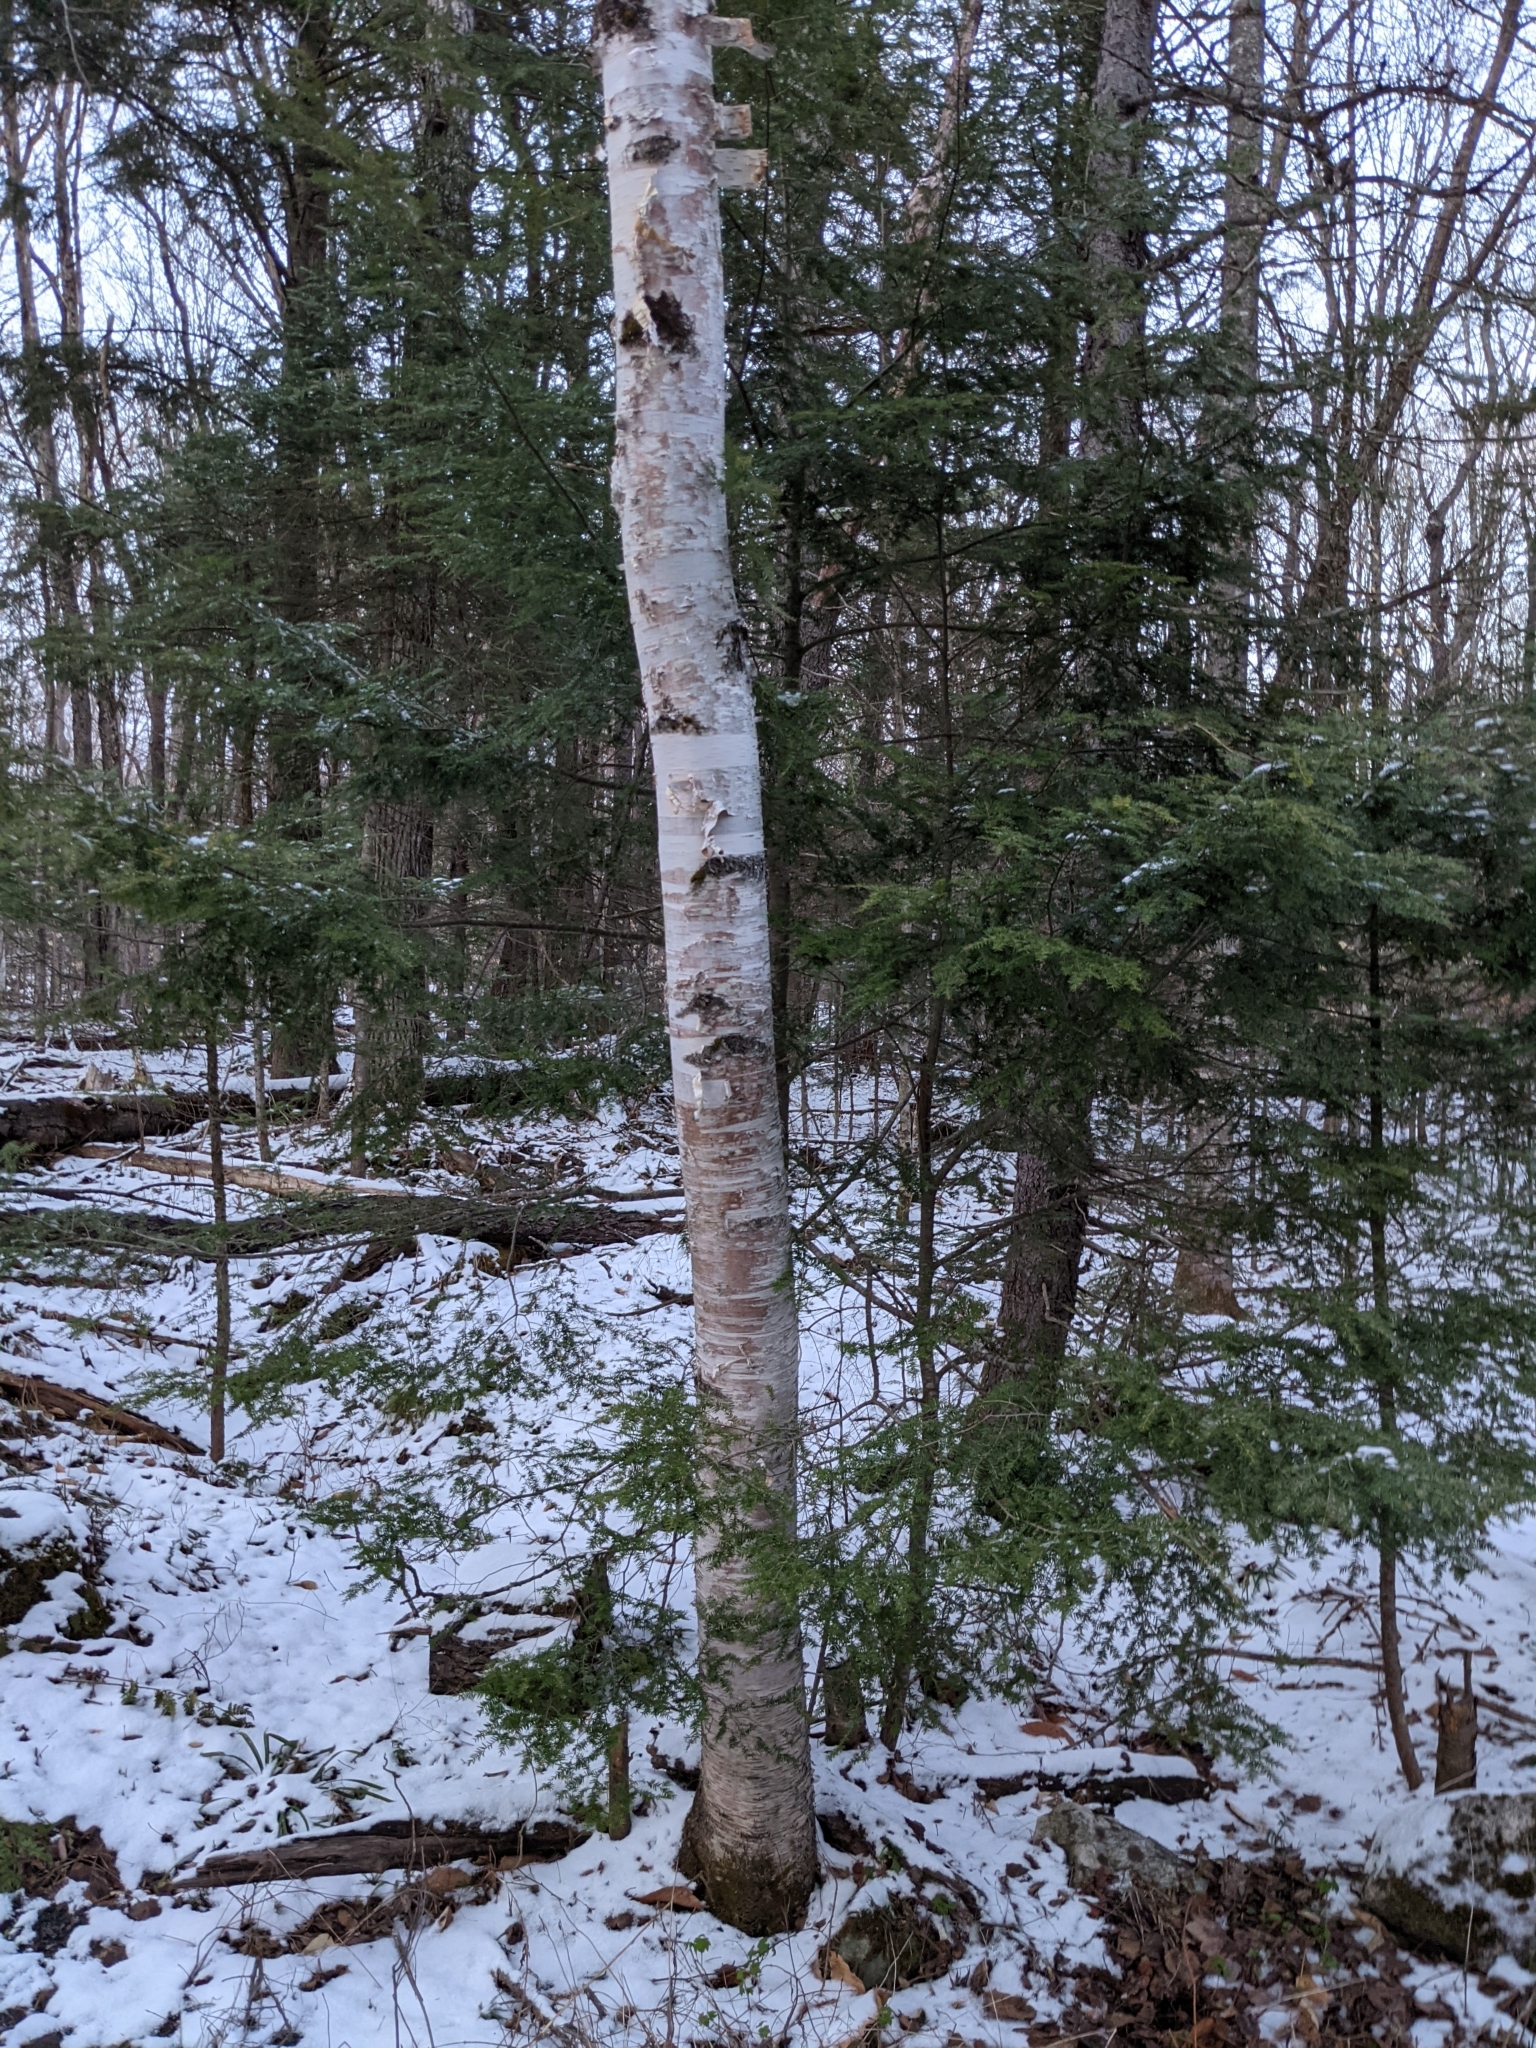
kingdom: Plantae
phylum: Tracheophyta
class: Magnoliopsida
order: Fagales
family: Betulaceae
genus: Betula
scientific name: Betula papyrifera
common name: Paper birch
